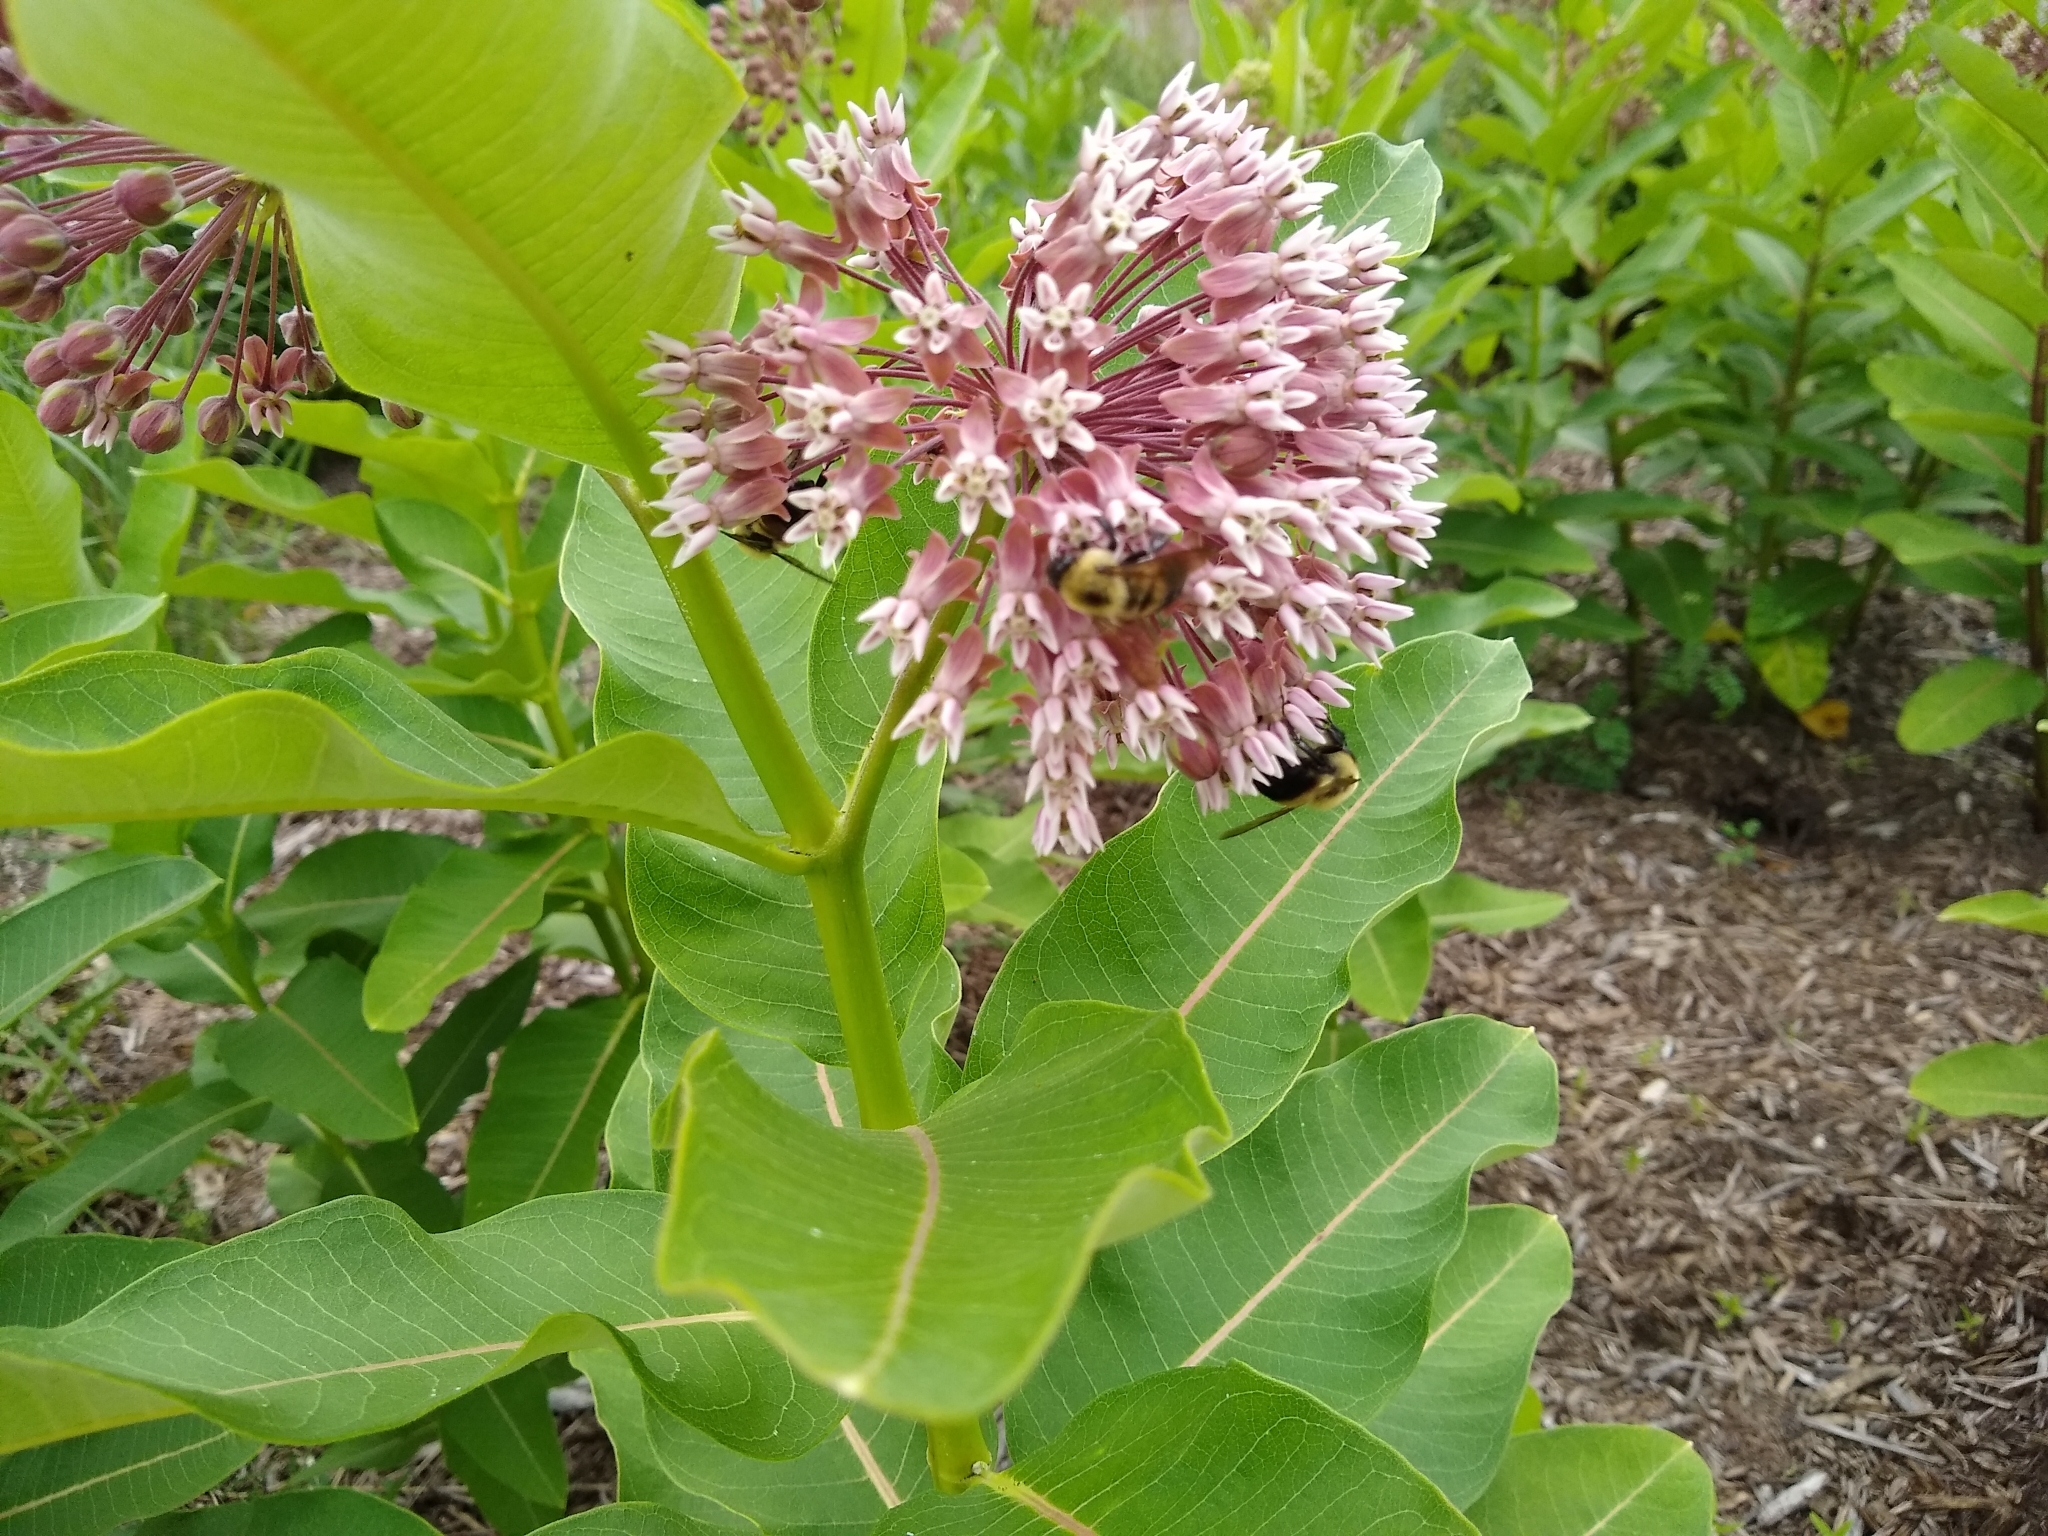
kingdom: Plantae
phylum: Tracheophyta
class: Magnoliopsida
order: Gentianales
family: Apocynaceae
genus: Asclepias
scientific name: Asclepias syriaca
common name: Common milkweed
